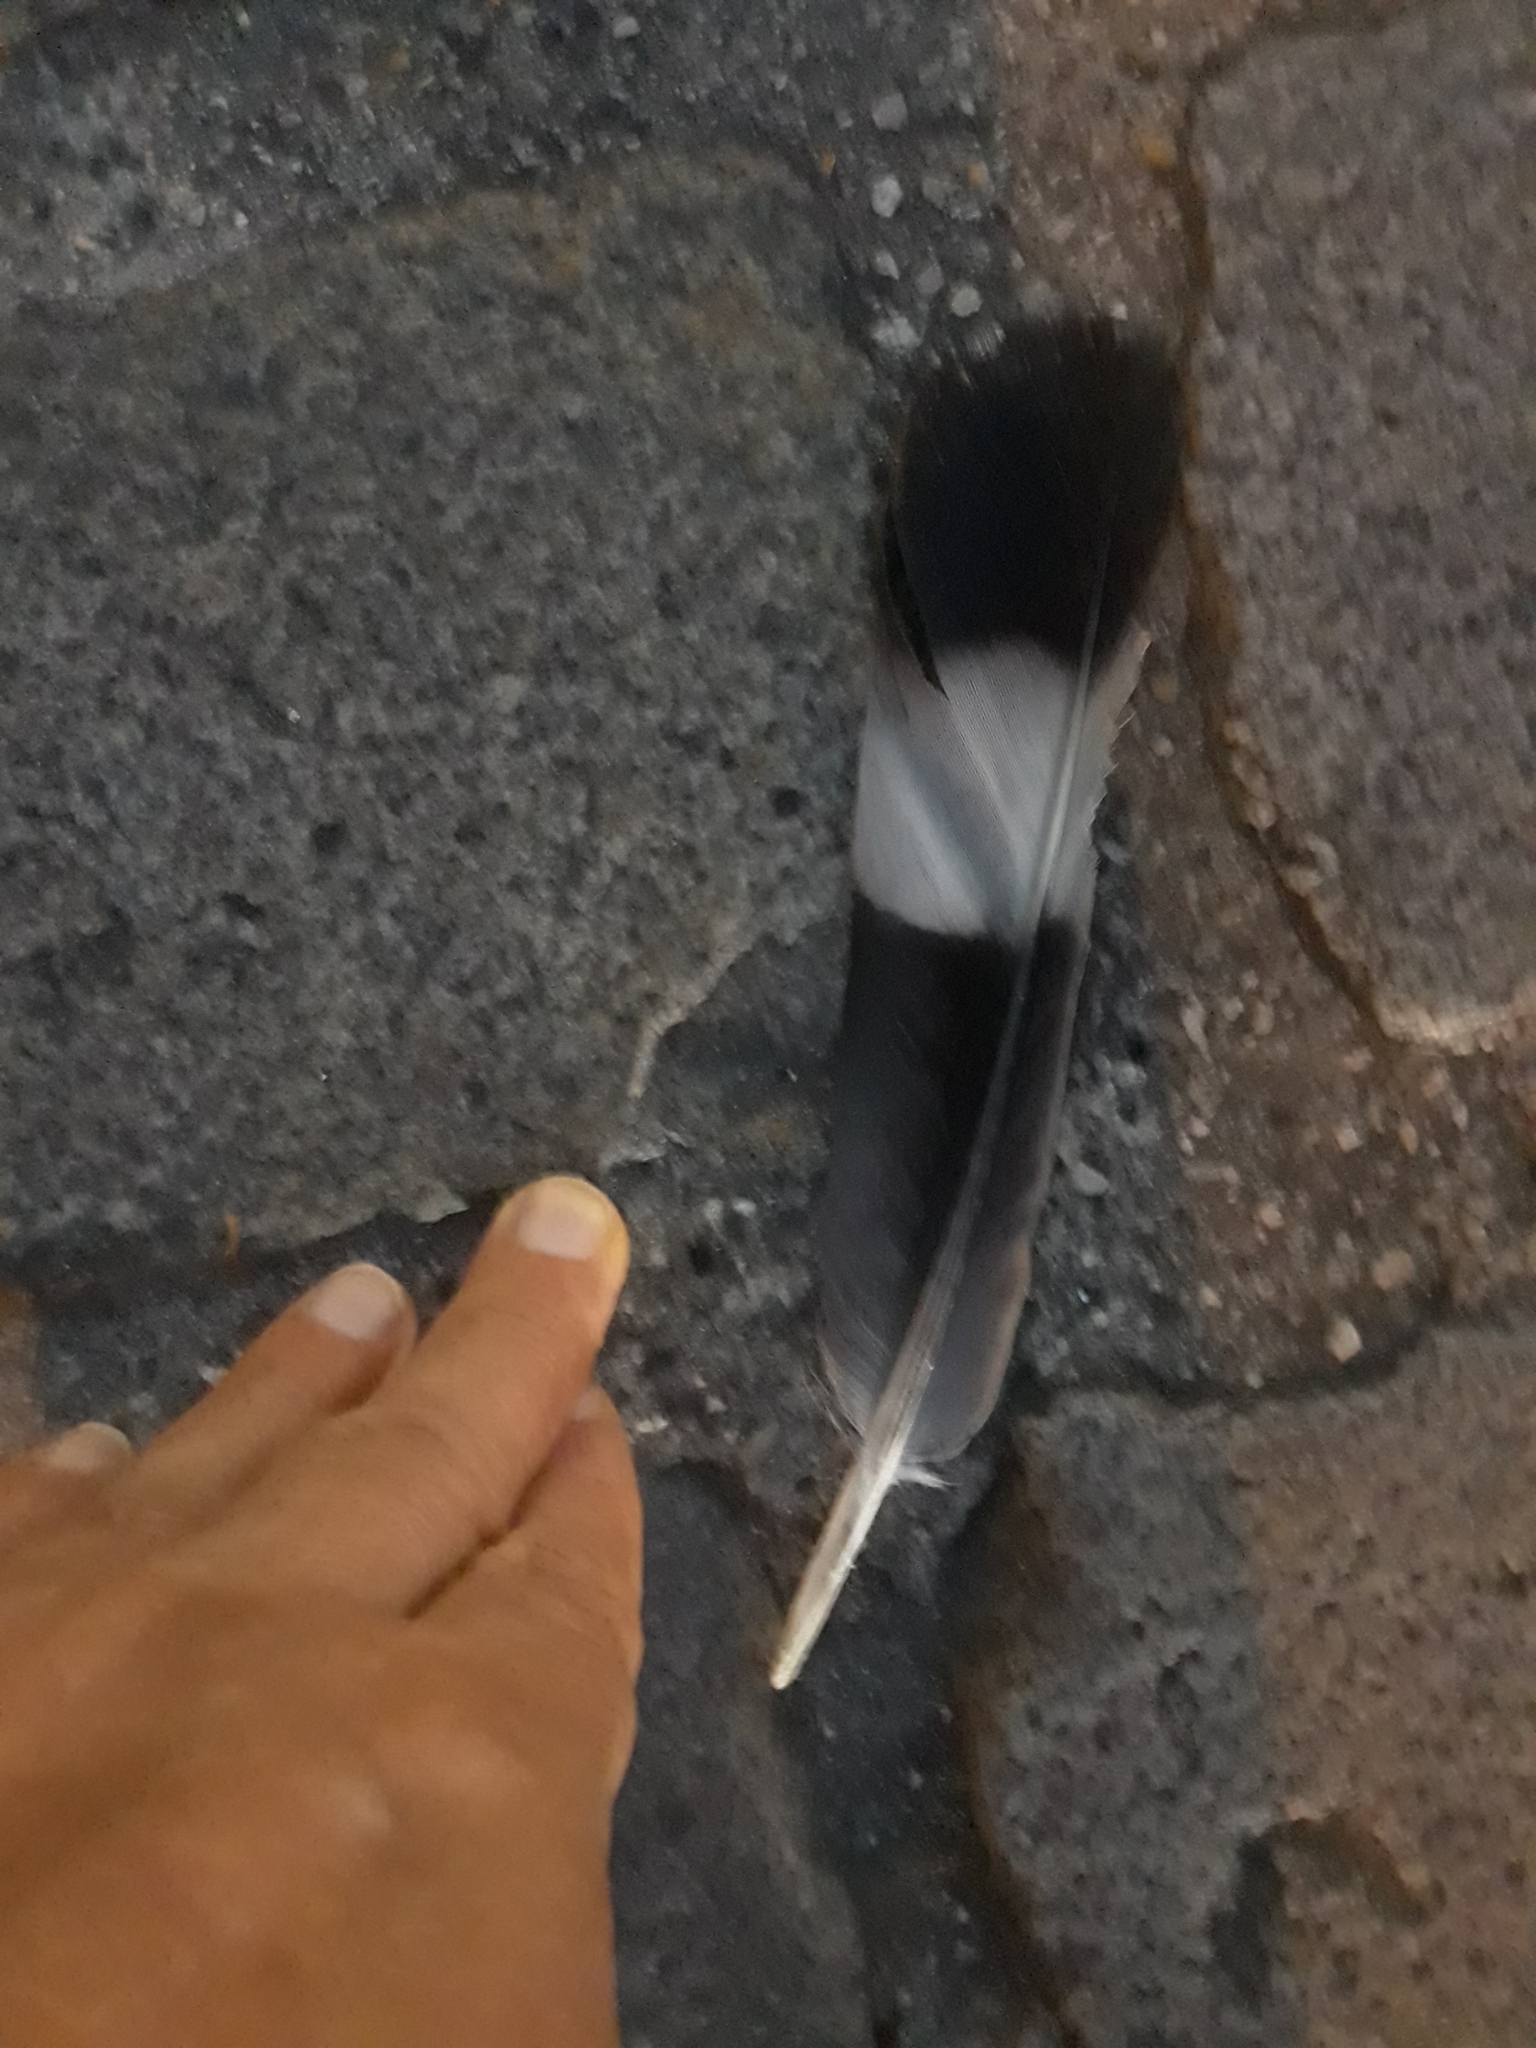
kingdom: Animalia
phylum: Chordata
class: Aves
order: Columbiformes
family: Columbidae
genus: Columba
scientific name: Columba palumbus
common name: Common wood pigeon
